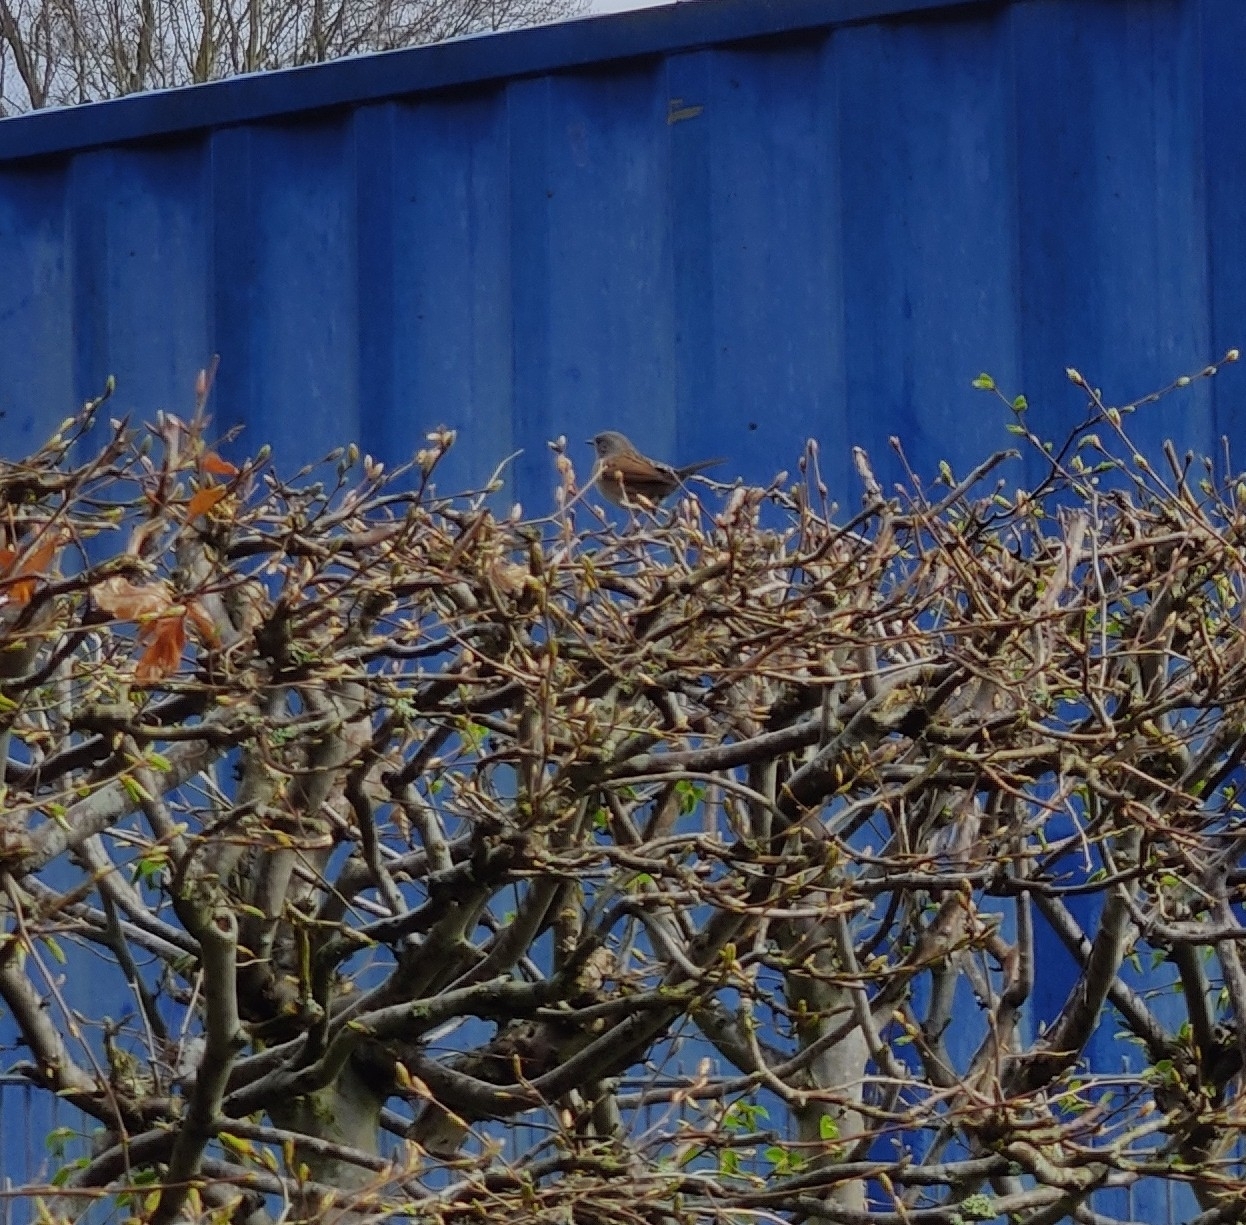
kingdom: Animalia
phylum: Chordata
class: Aves
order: Passeriformes
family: Prunellidae
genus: Prunella
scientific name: Prunella modularis
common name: Dunnock
